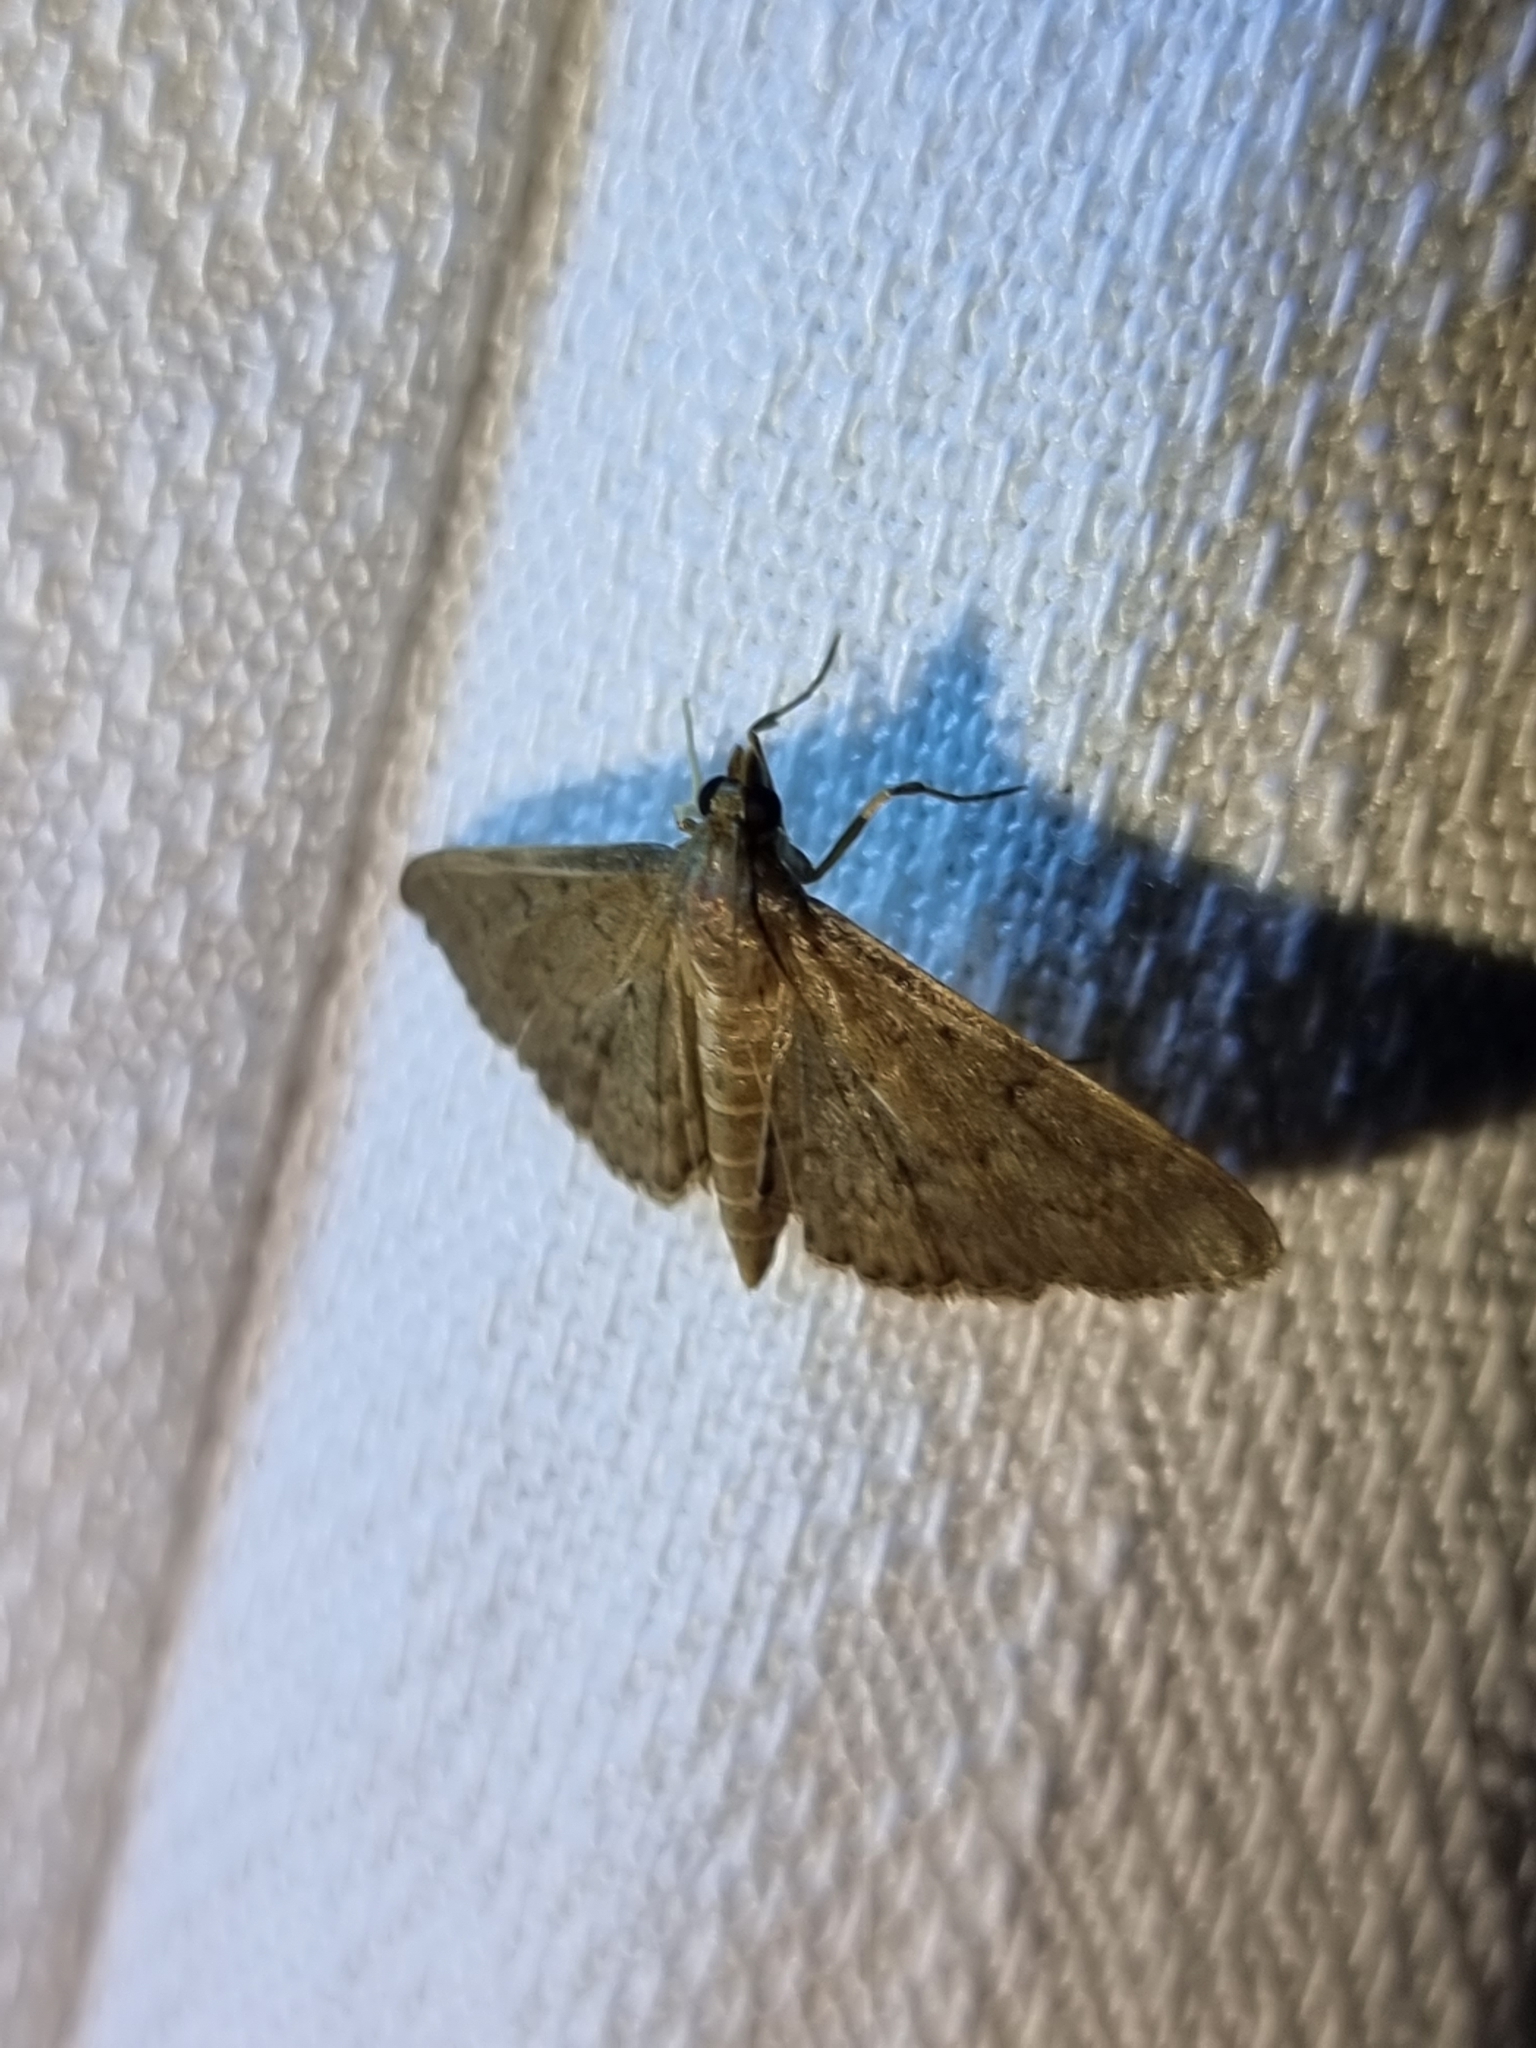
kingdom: Animalia
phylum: Arthropoda
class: Insecta
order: Lepidoptera
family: Crambidae
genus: Herpetogramma
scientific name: Herpetogramma licarsisalis
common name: Grass webworm
